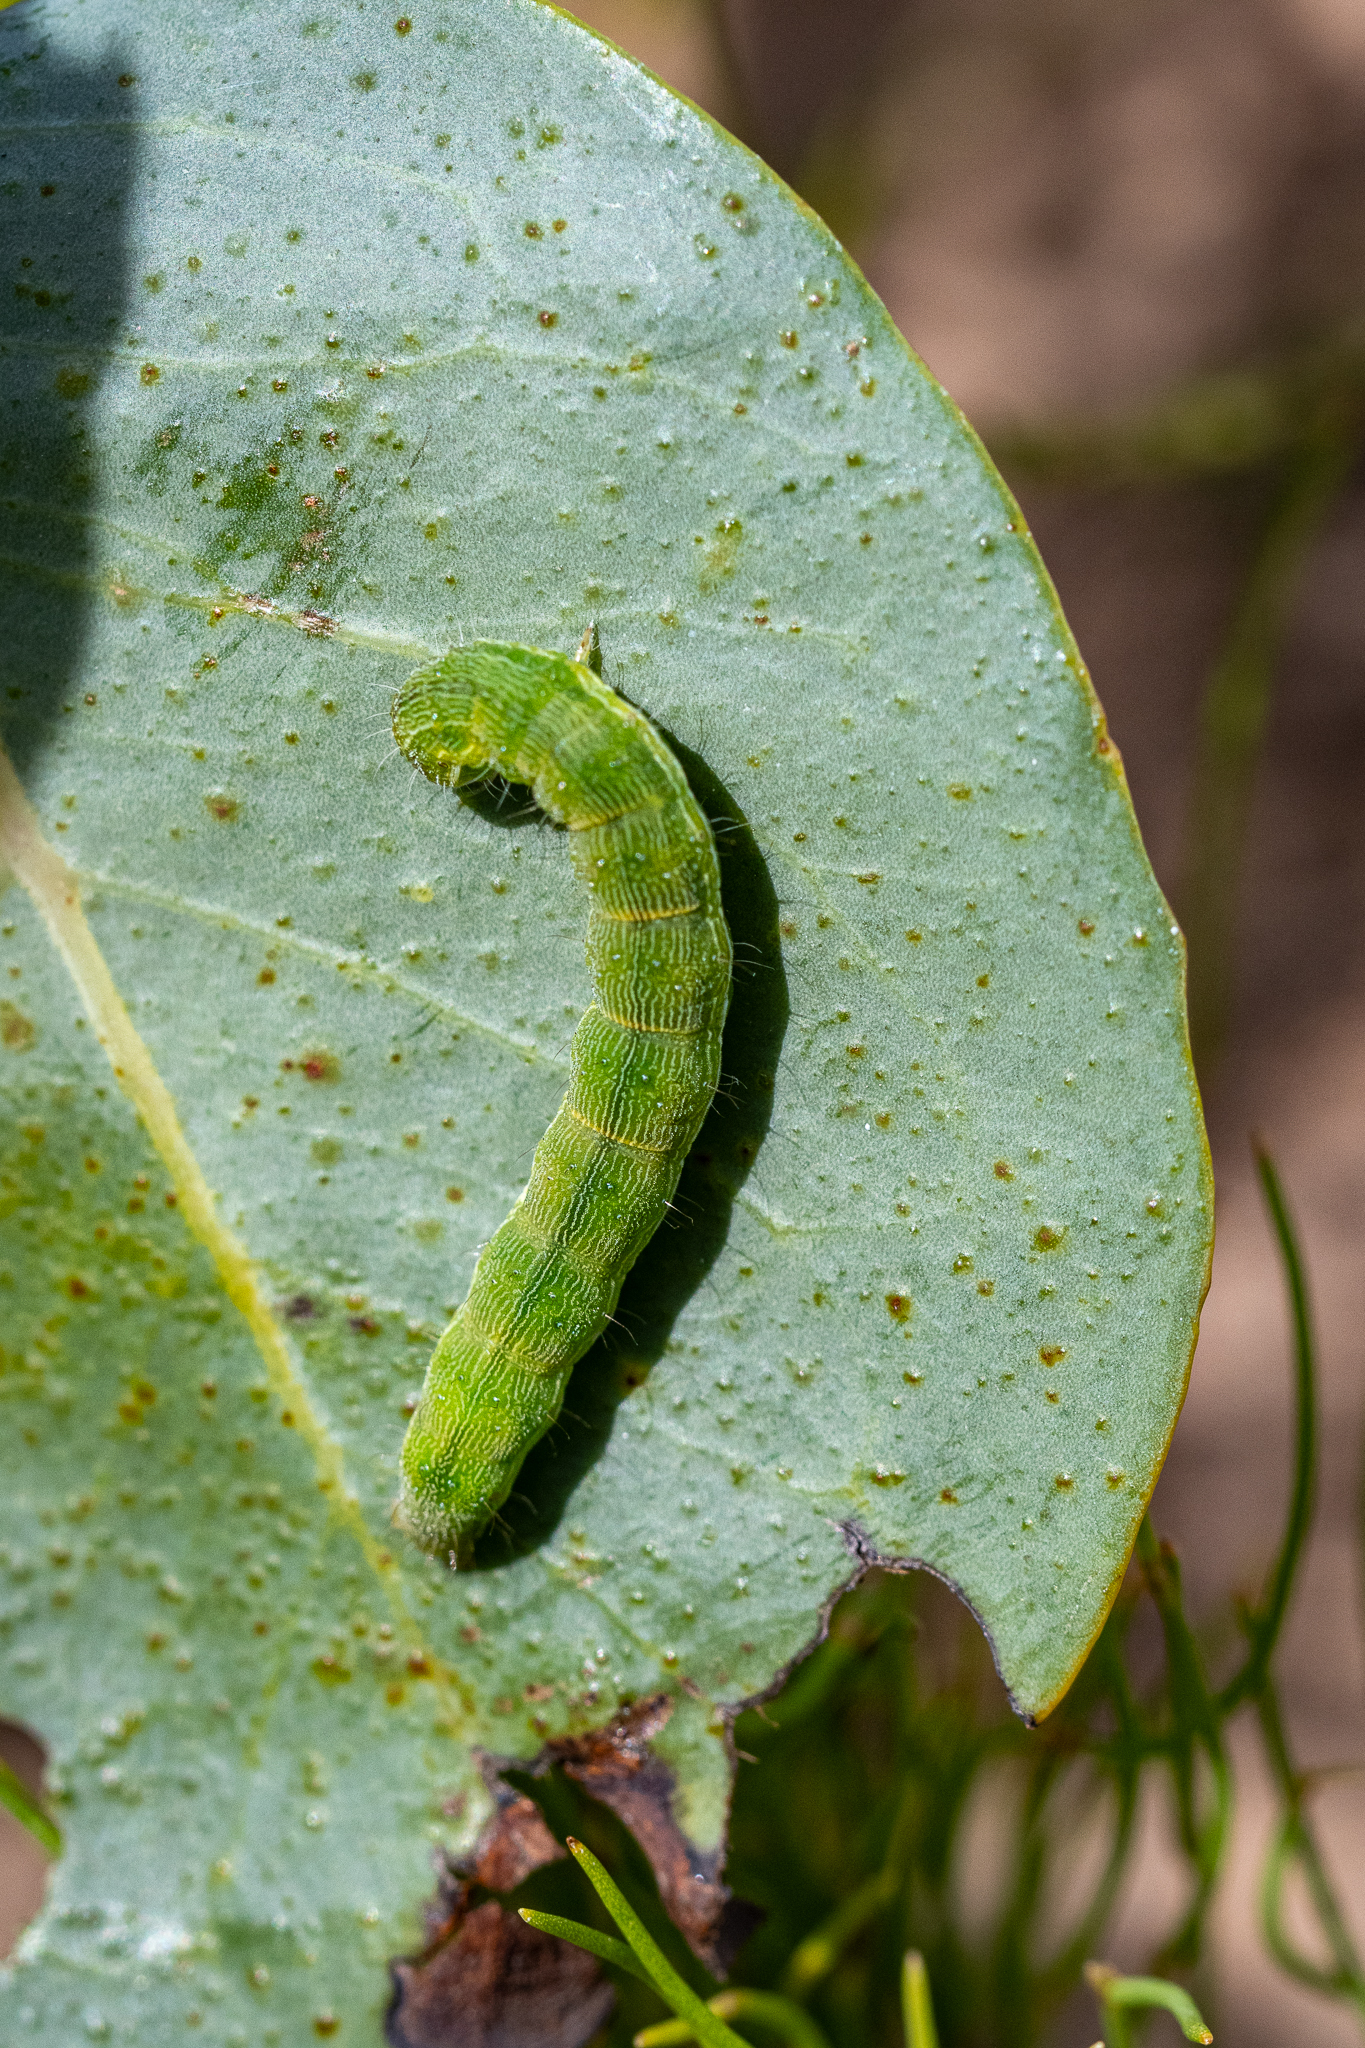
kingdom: Animalia
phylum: Arthropoda
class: Insecta
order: Lepidoptera
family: Noctuidae
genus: Helicoverpa
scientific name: Helicoverpa armigera
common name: Cotton bollworm
